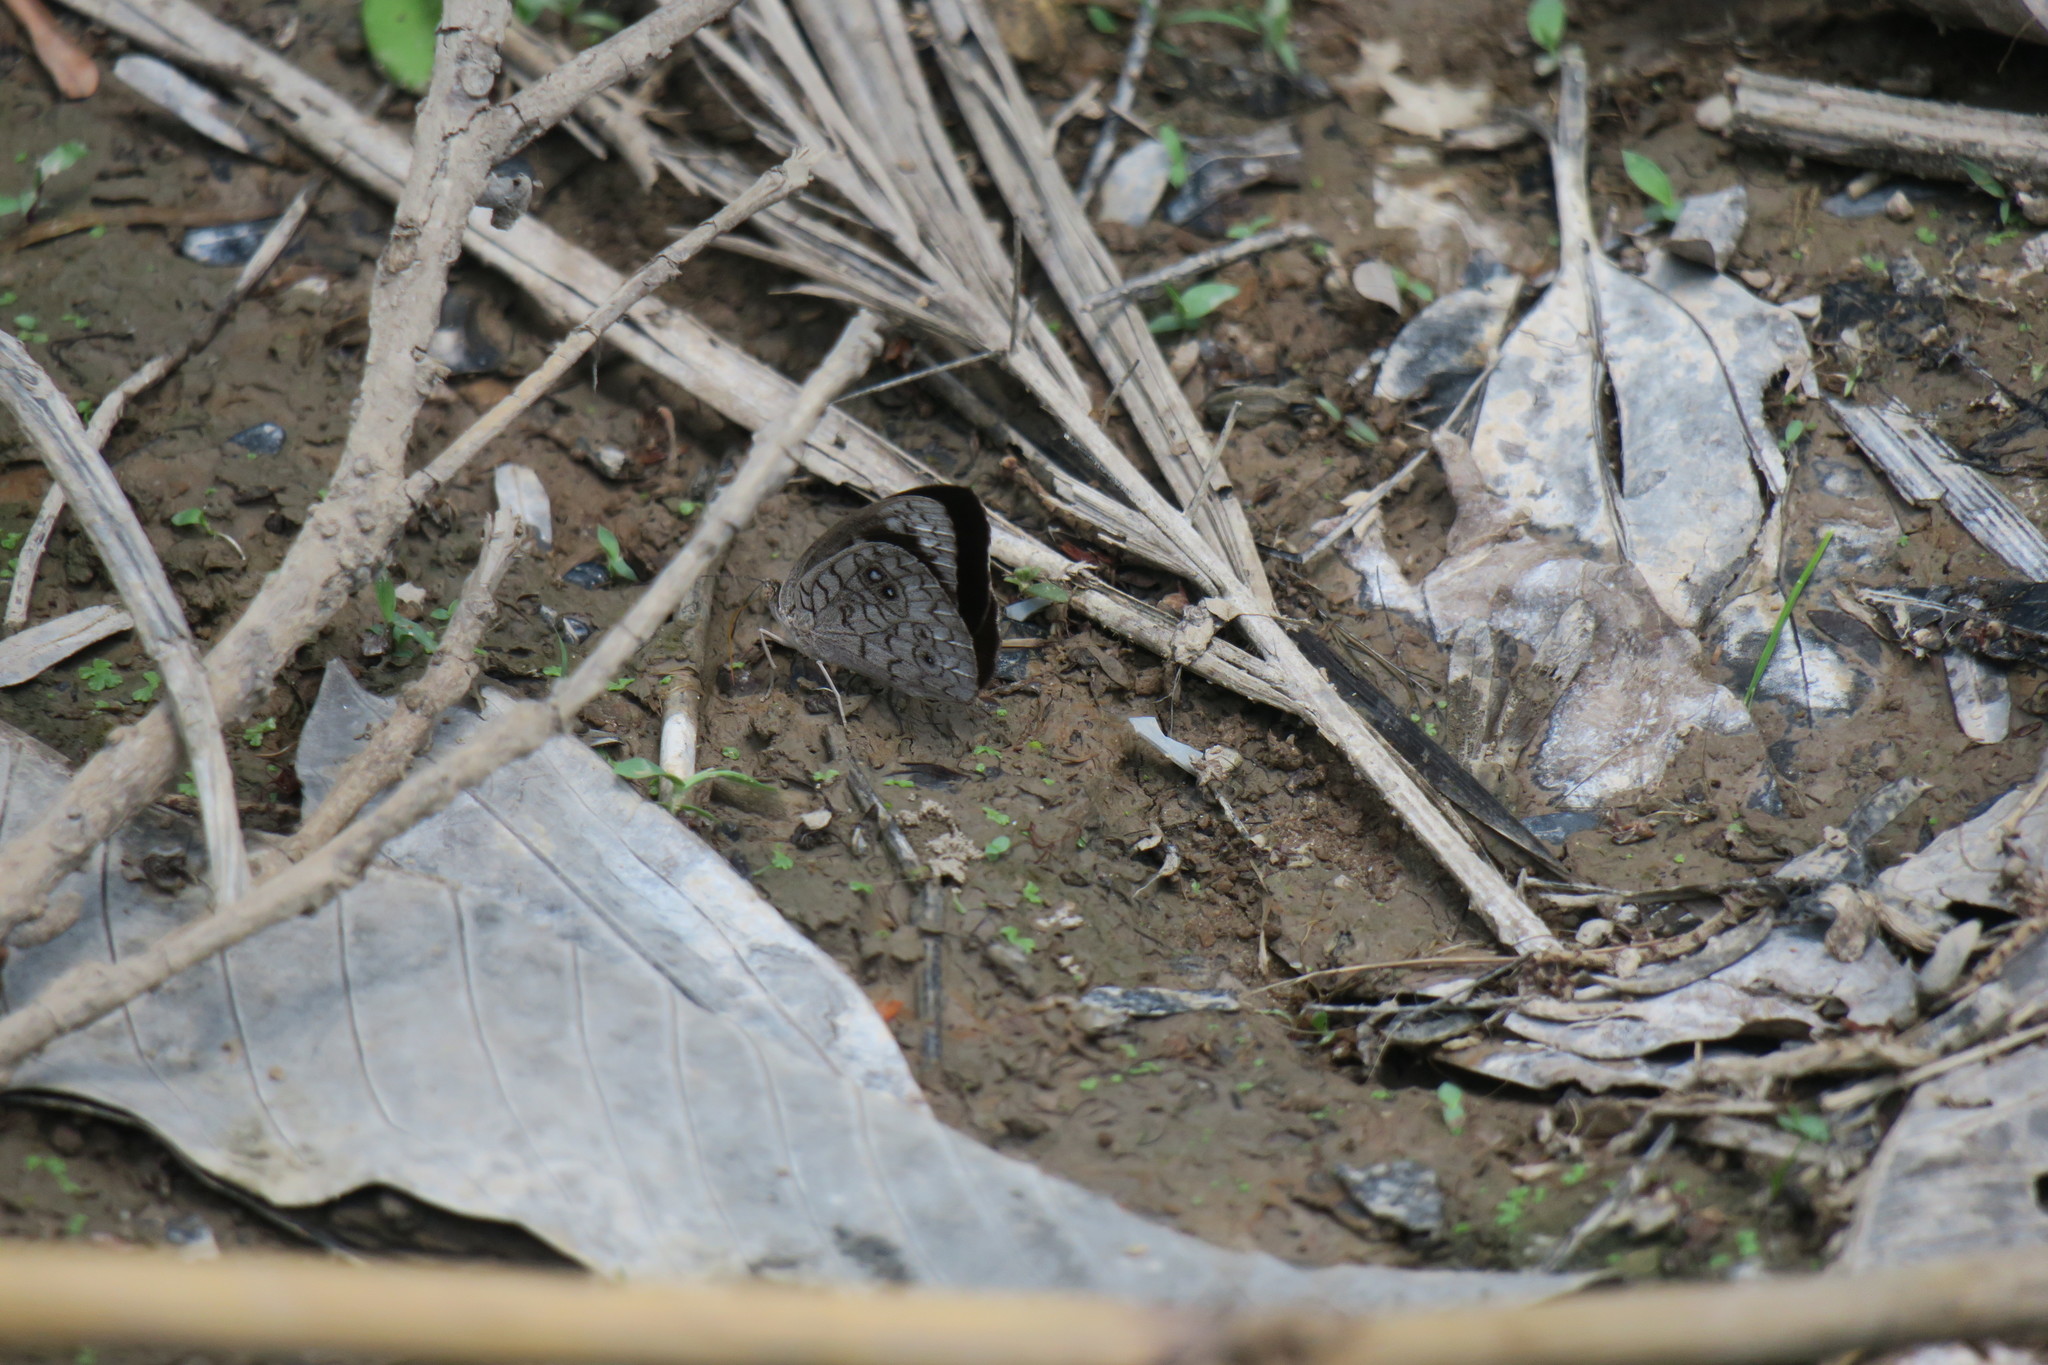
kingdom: Animalia
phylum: Arthropoda
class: Insecta
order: Lepidoptera
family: Nymphalidae
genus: Eunica
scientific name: Eunica clythia
